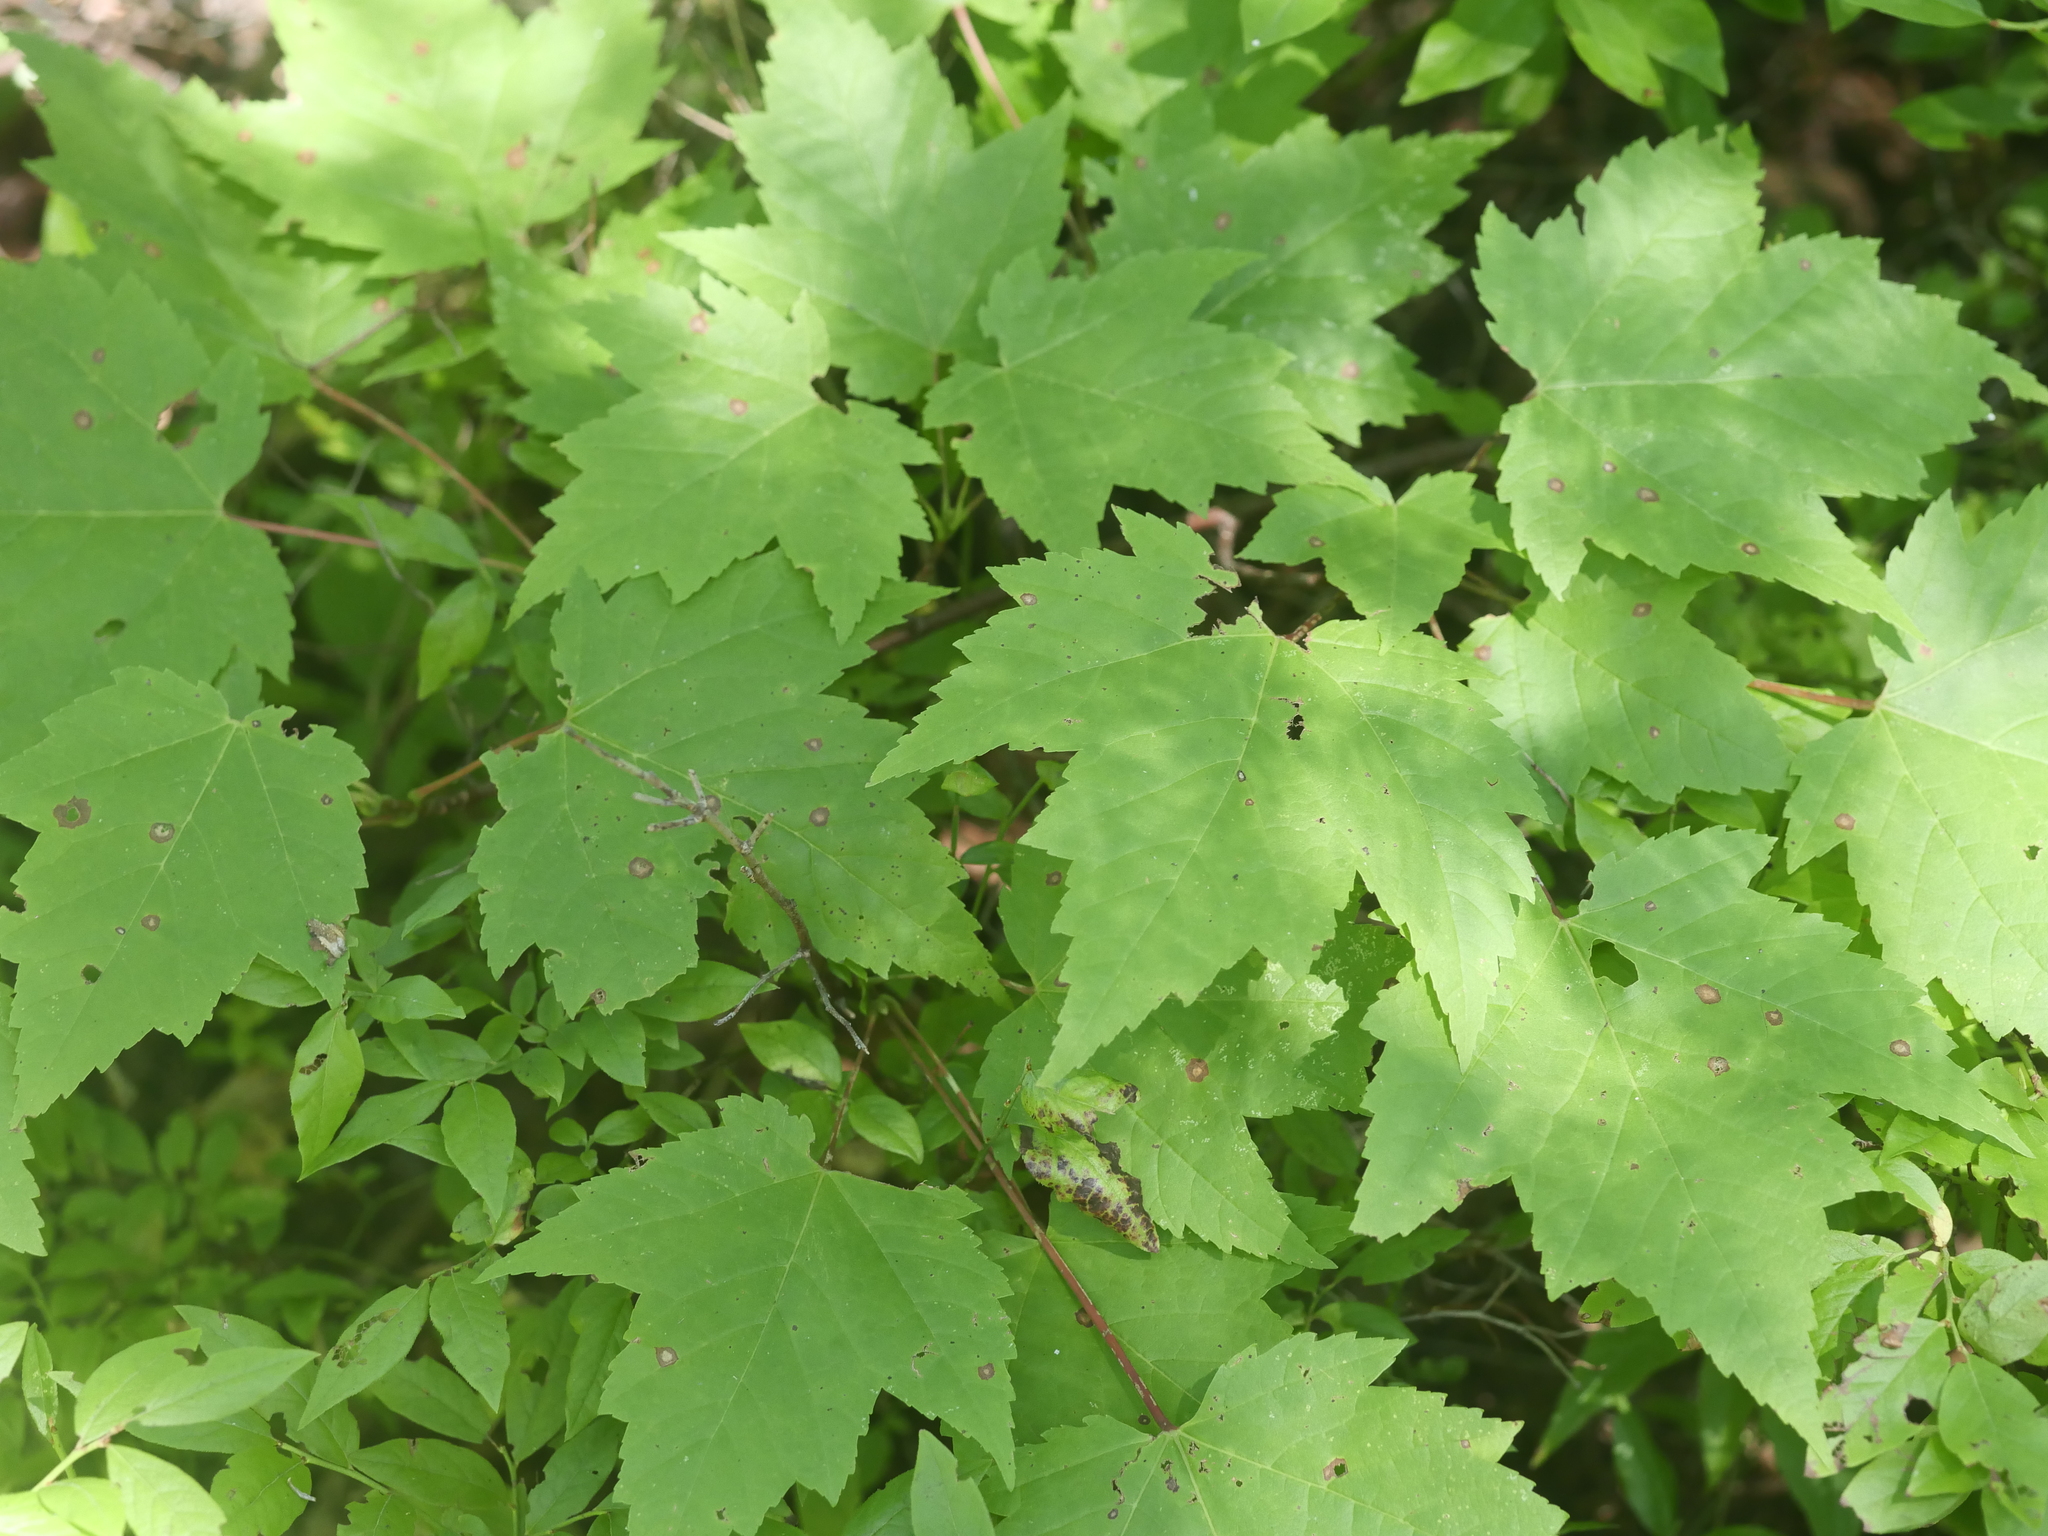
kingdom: Plantae
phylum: Tracheophyta
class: Magnoliopsida
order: Sapindales
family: Sapindaceae
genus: Acer
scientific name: Acer rubrum
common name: Red maple
